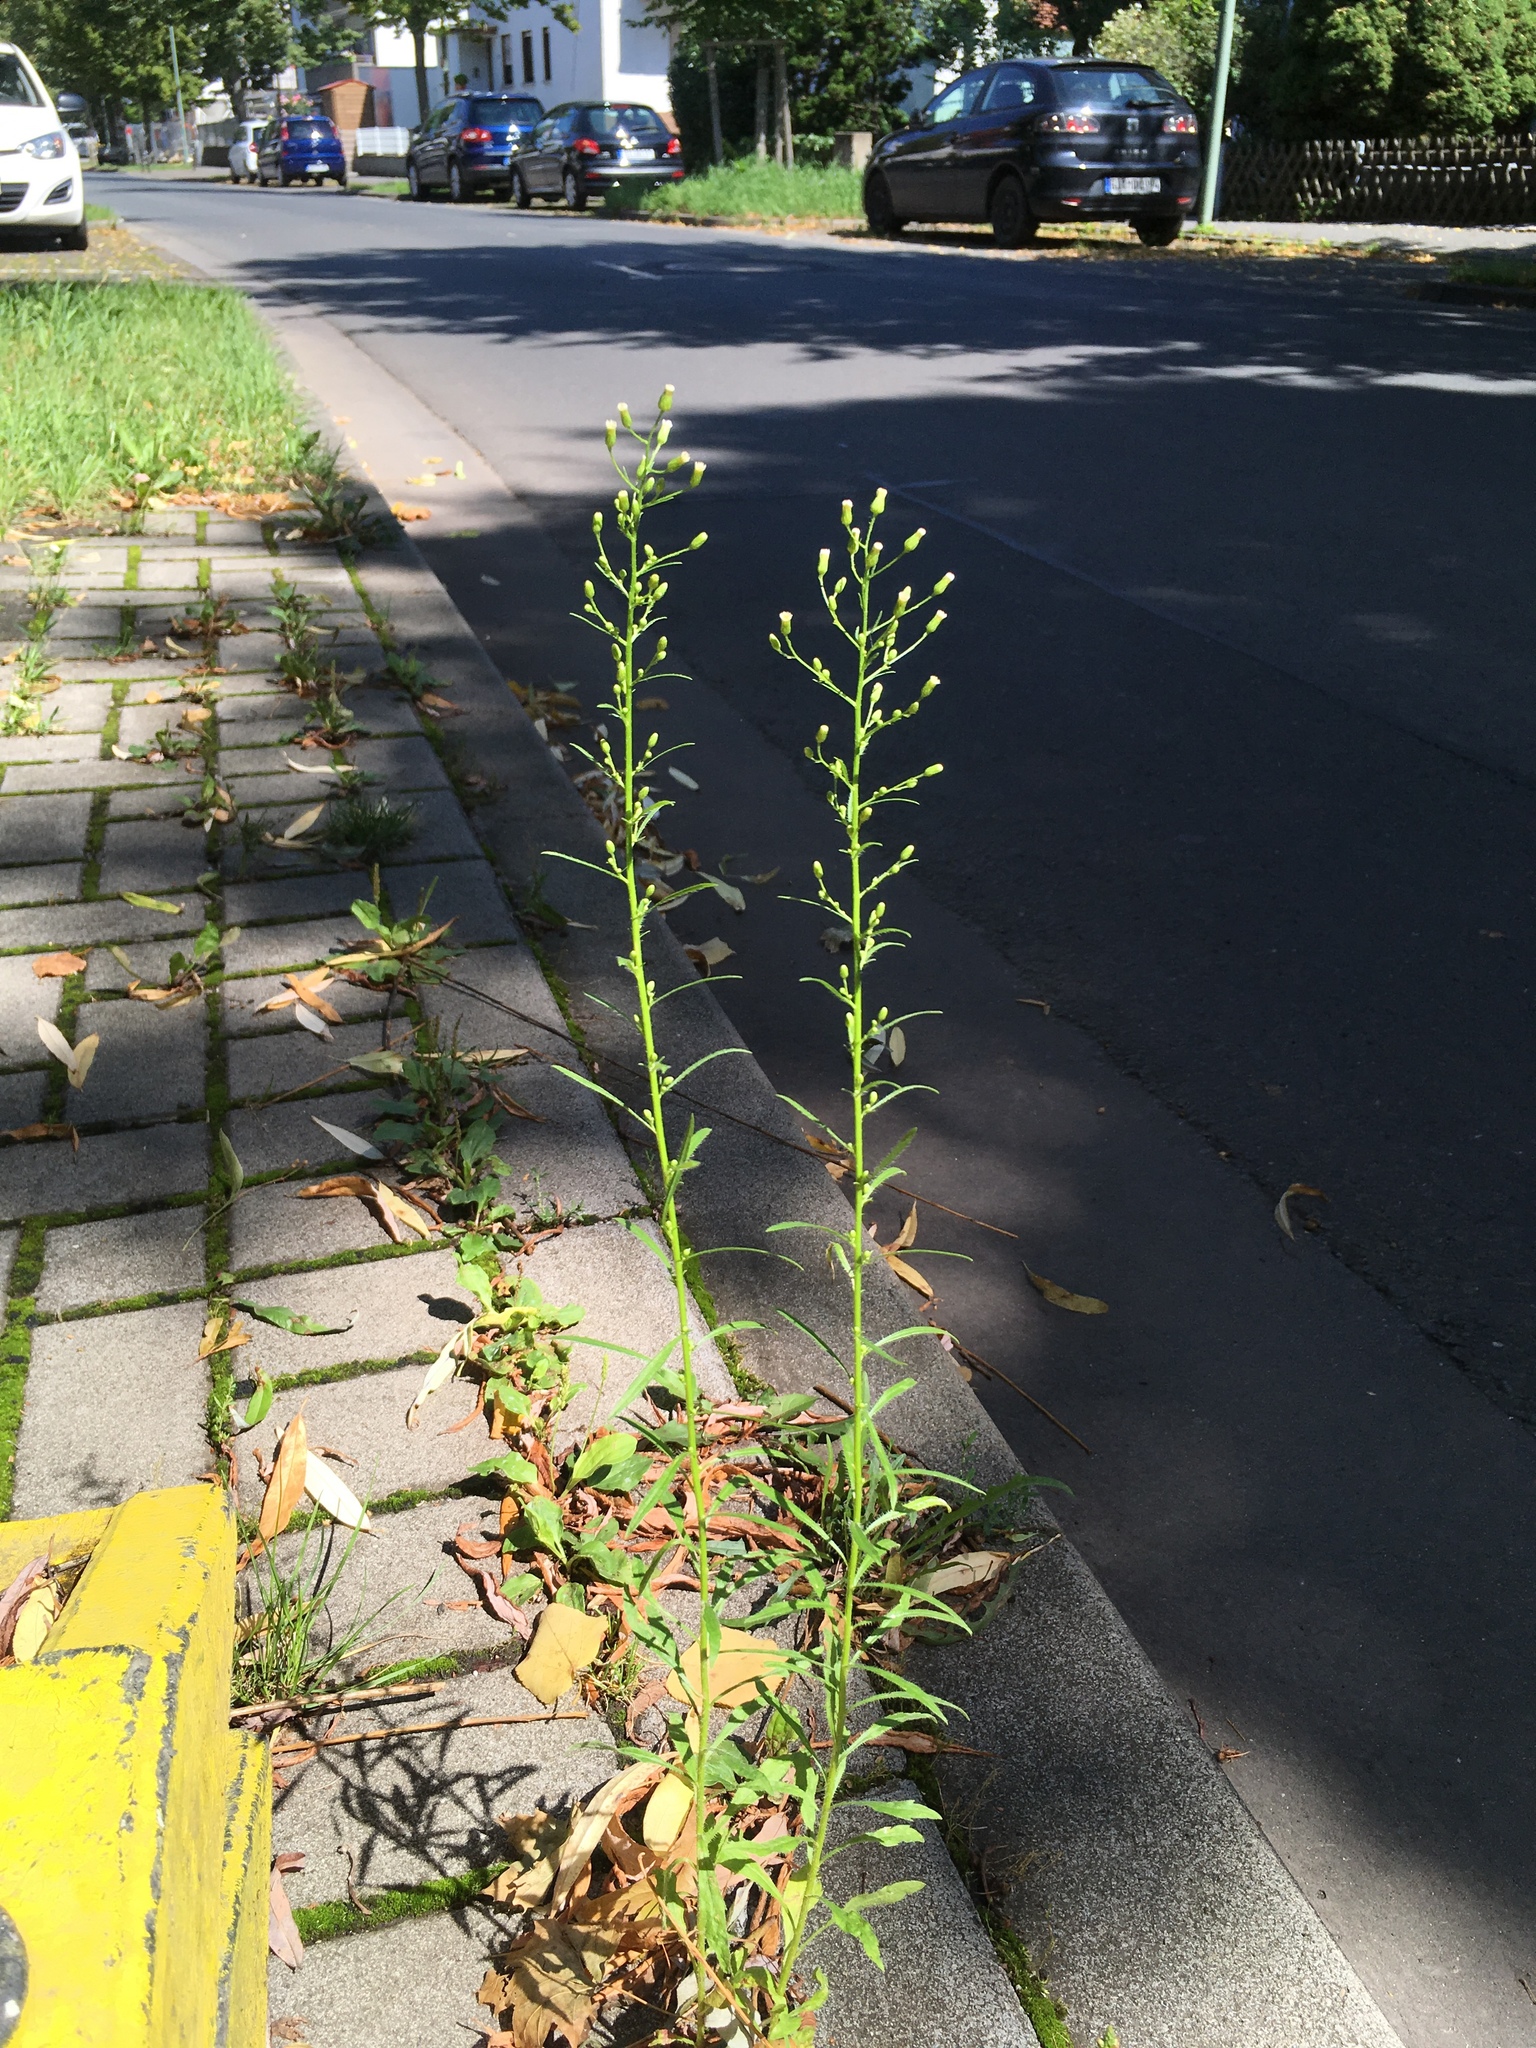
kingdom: Plantae
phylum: Tracheophyta
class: Magnoliopsida
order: Asterales
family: Asteraceae
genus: Erigeron
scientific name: Erigeron canadensis
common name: Canadian fleabane
